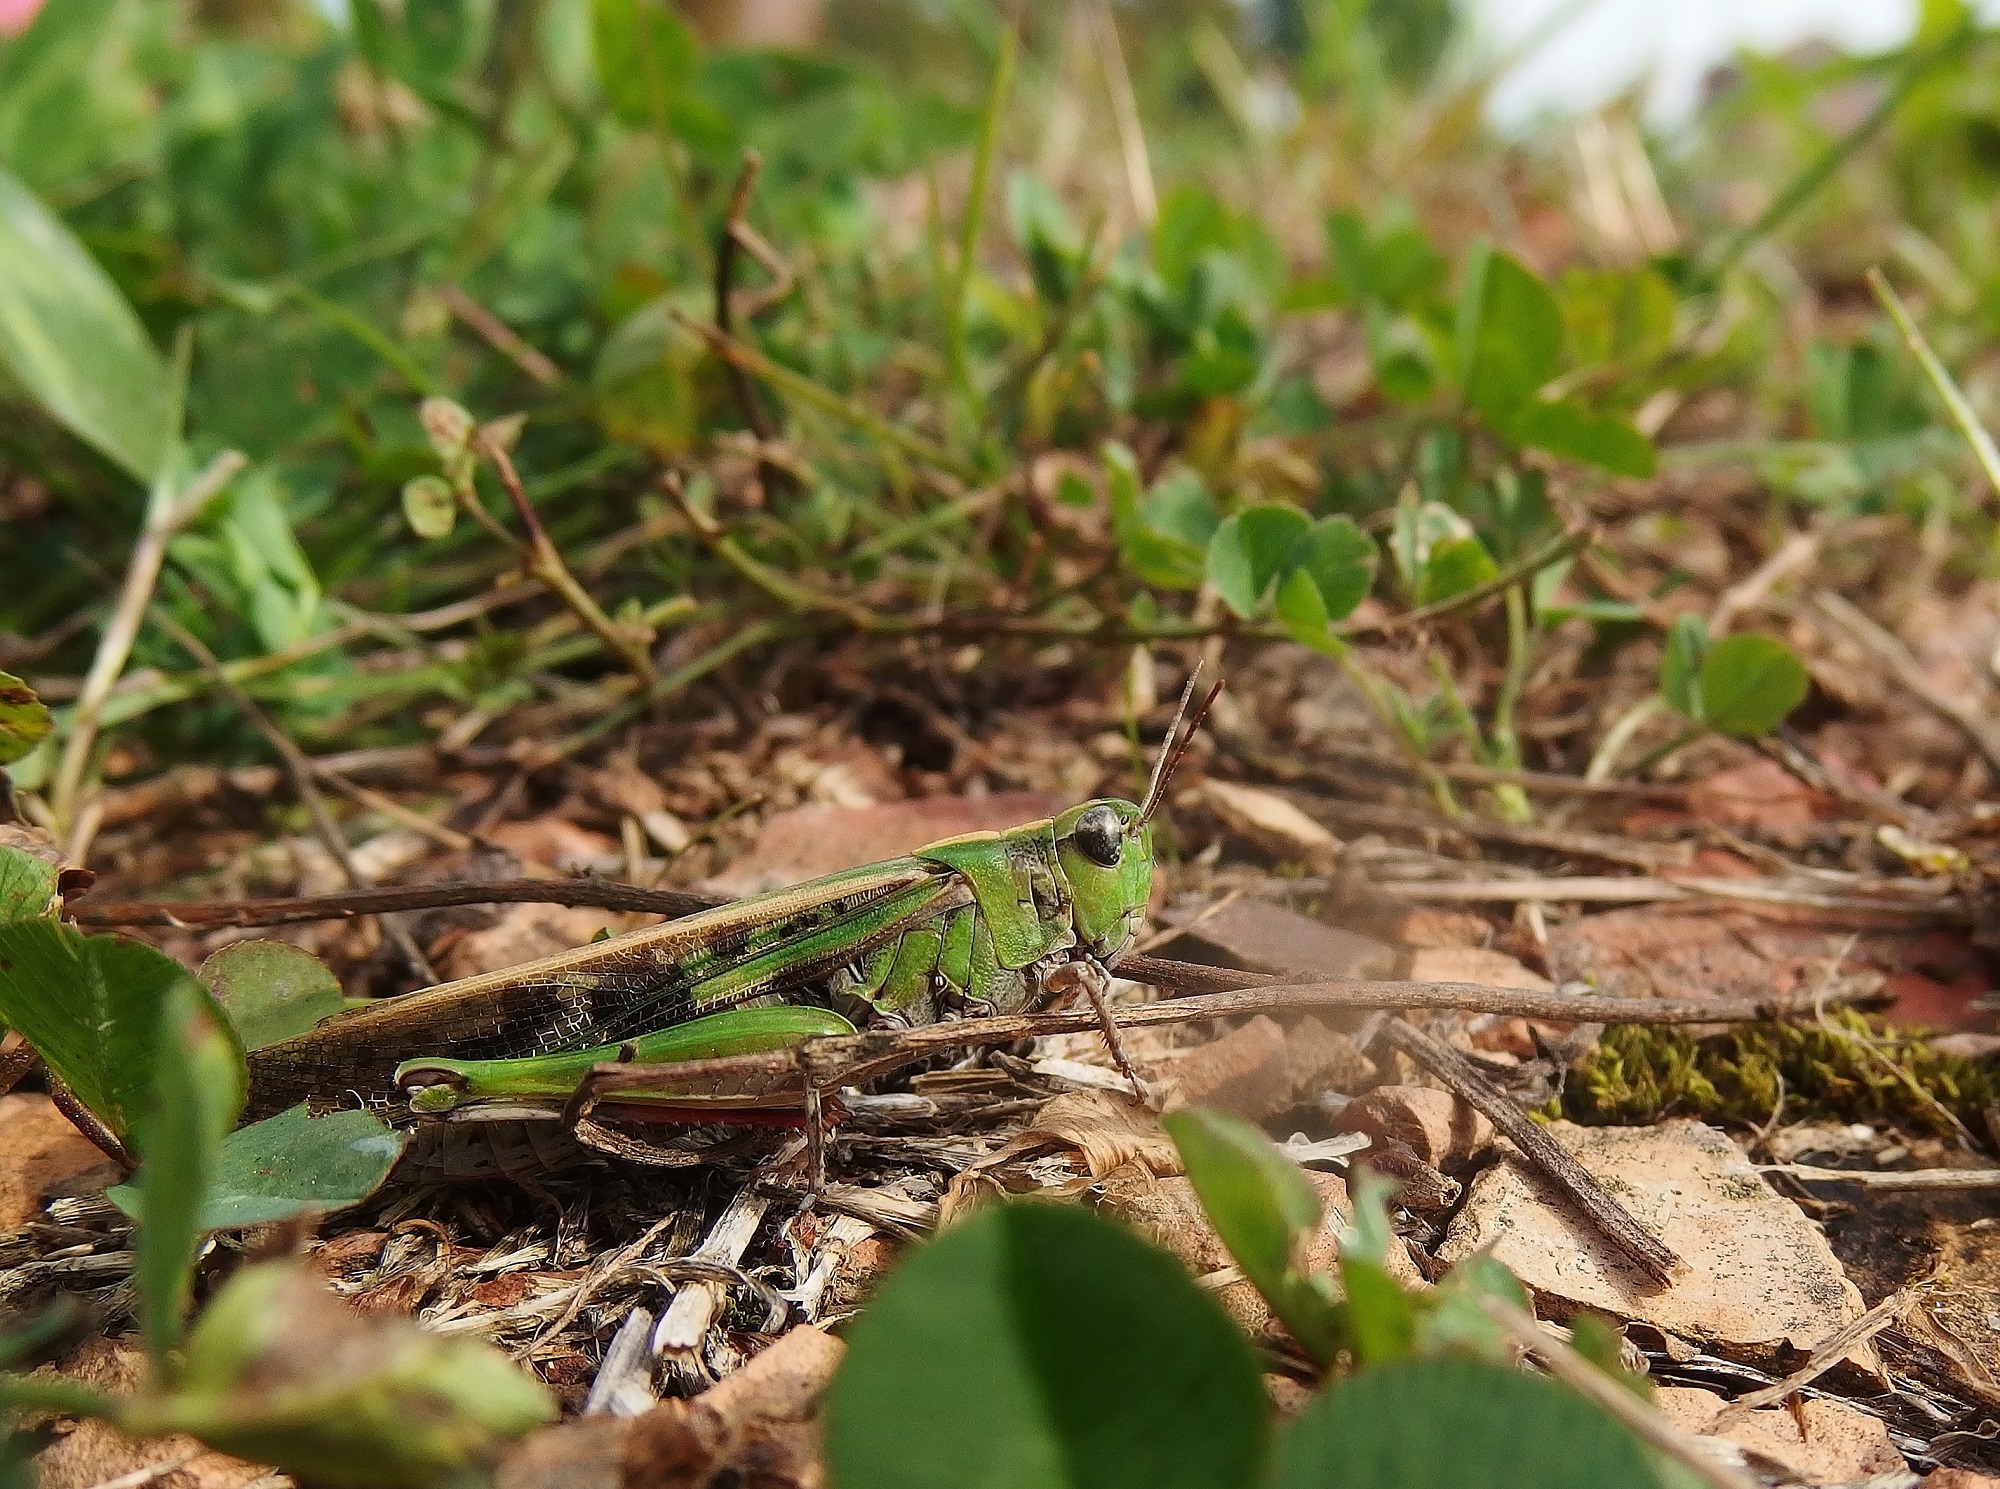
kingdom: Animalia
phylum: Arthropoda
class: Insecta
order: Orthoptera
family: Acrididae
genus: Aiolopus
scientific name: Aiolopus thalassinus
